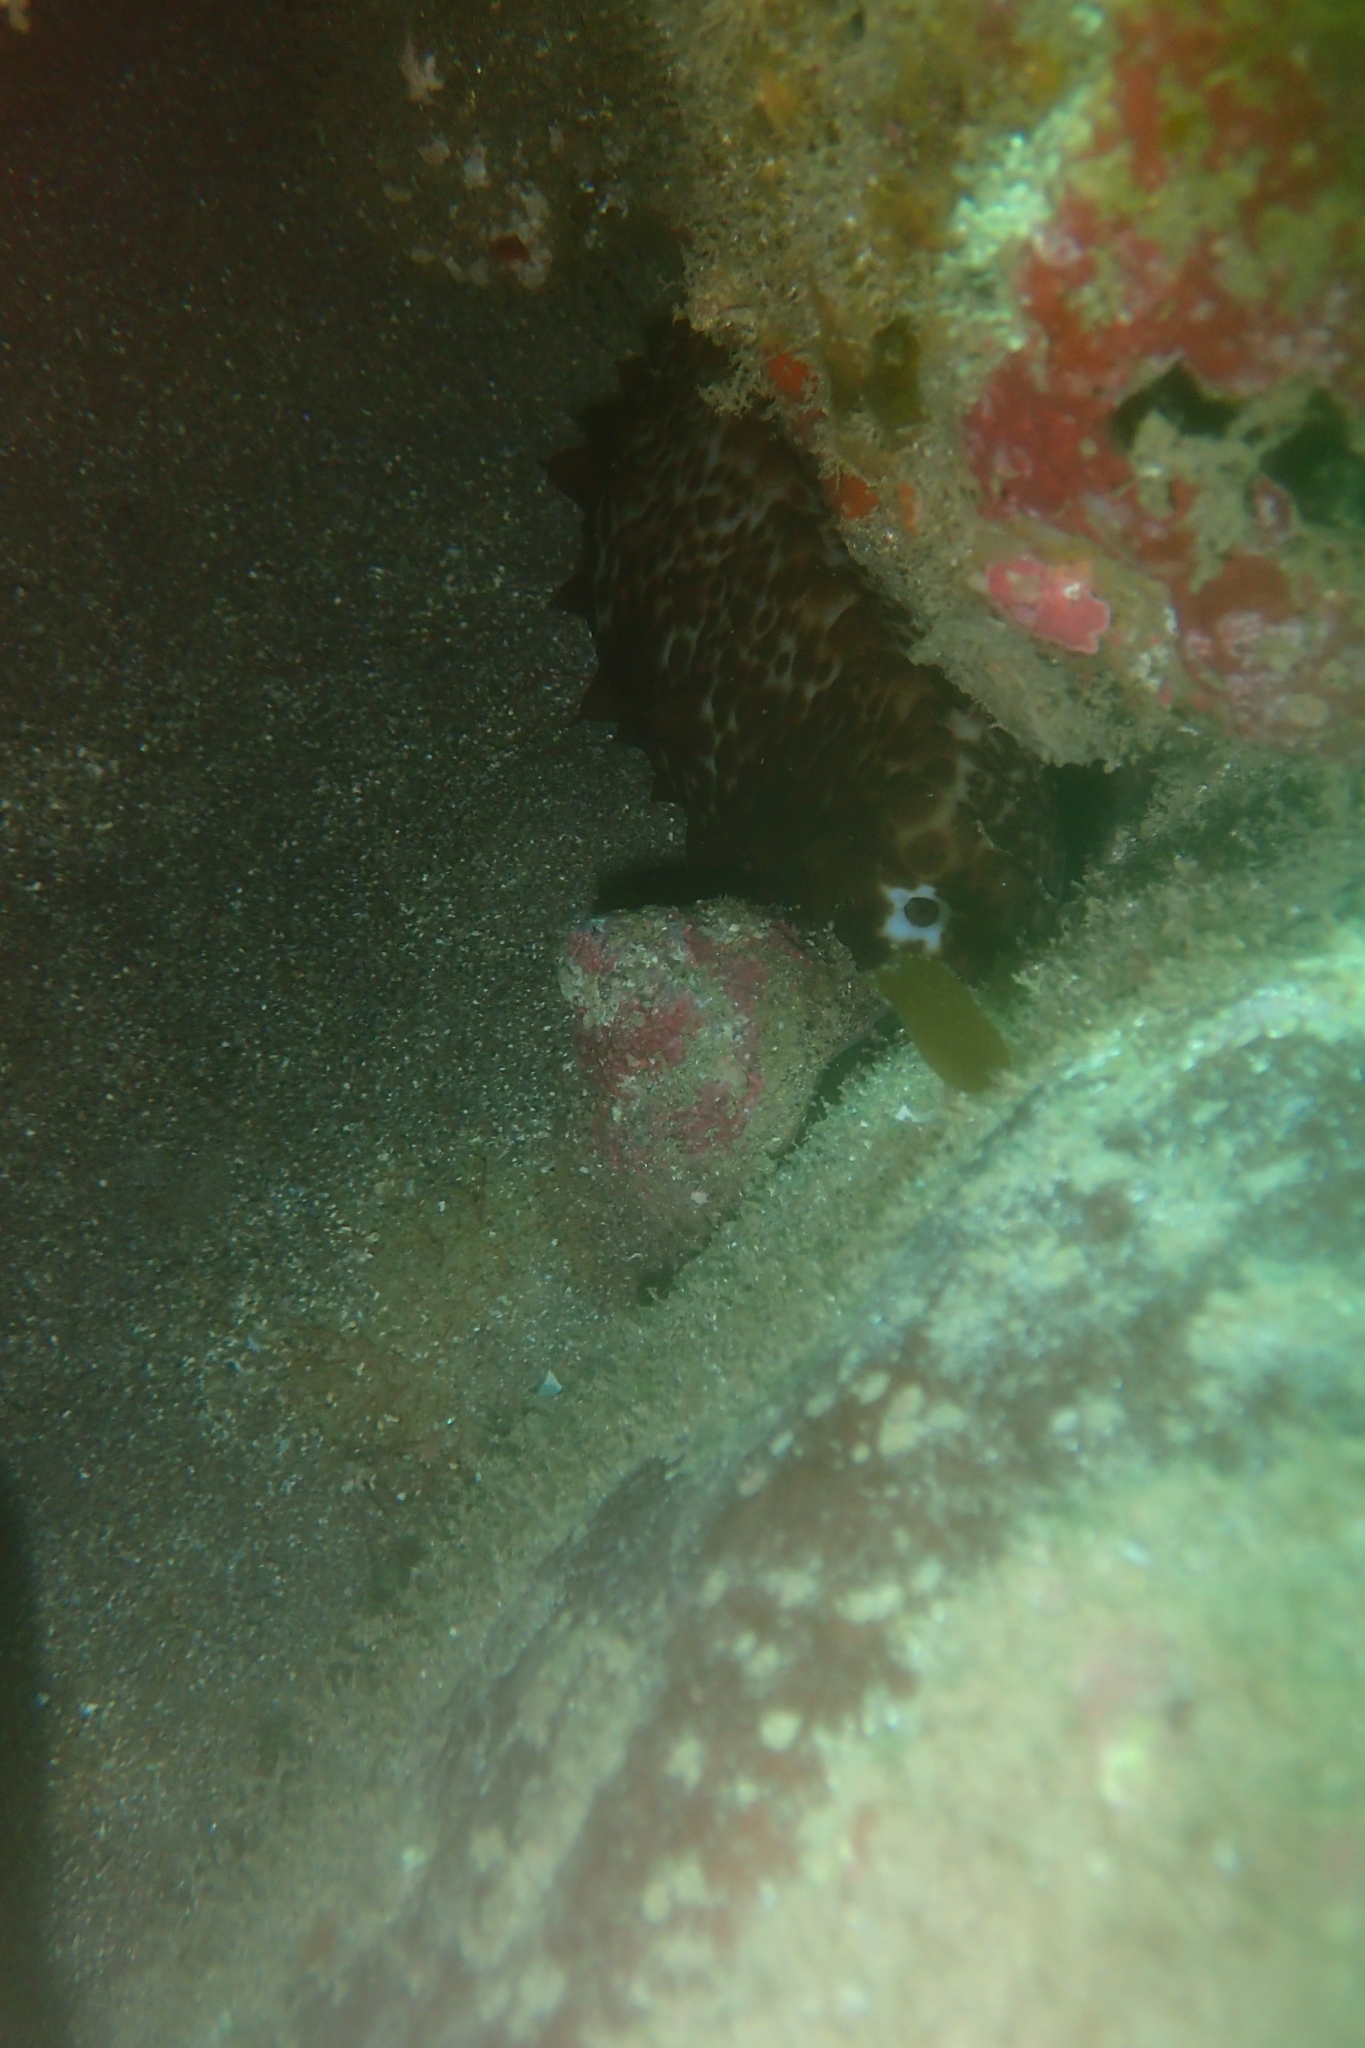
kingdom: Animalia
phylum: Echinodermata
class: Holothuroidea
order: Synallactida
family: Stichopodidae
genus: Australostichopus
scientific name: Australostichopus mollis
